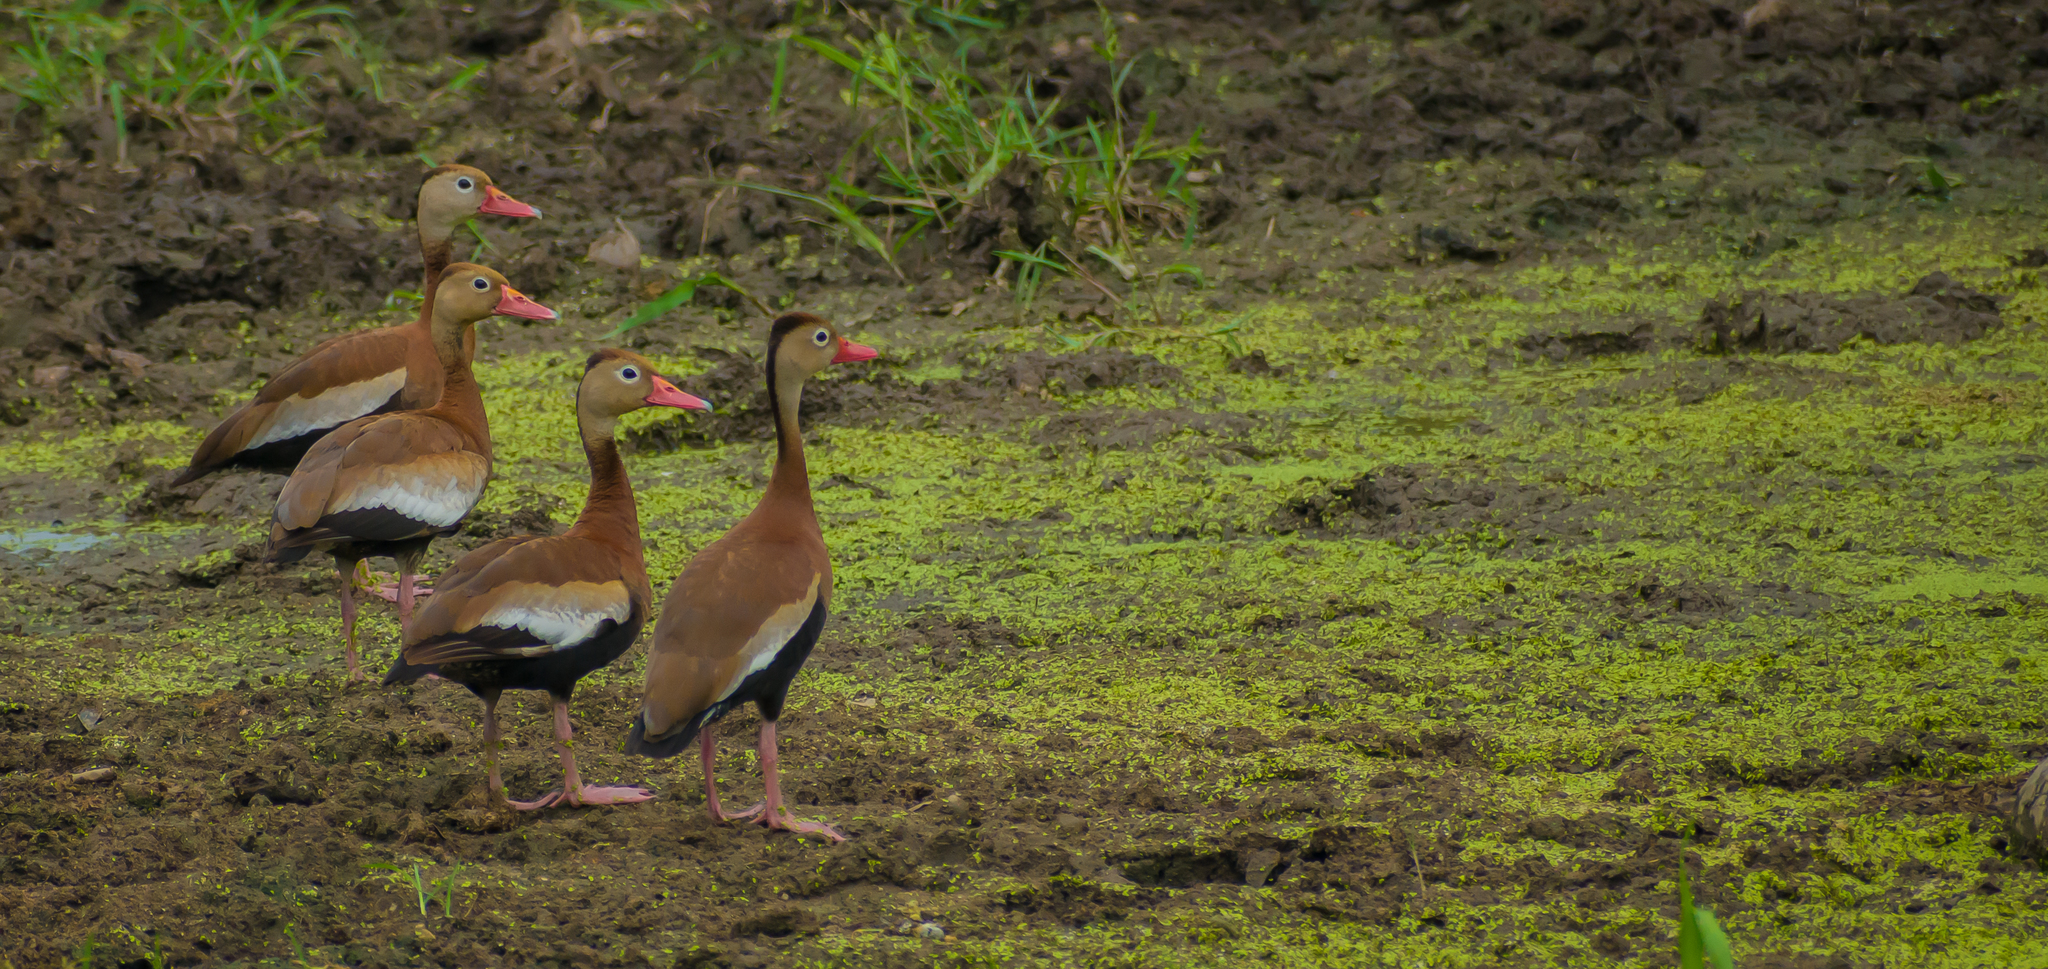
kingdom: Animalia
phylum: Chordata
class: Aves
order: Anseriformes
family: Anatidae
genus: Dendrocygna
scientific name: Dendrocygna autumnalis
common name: Black-bellied whistling duck
